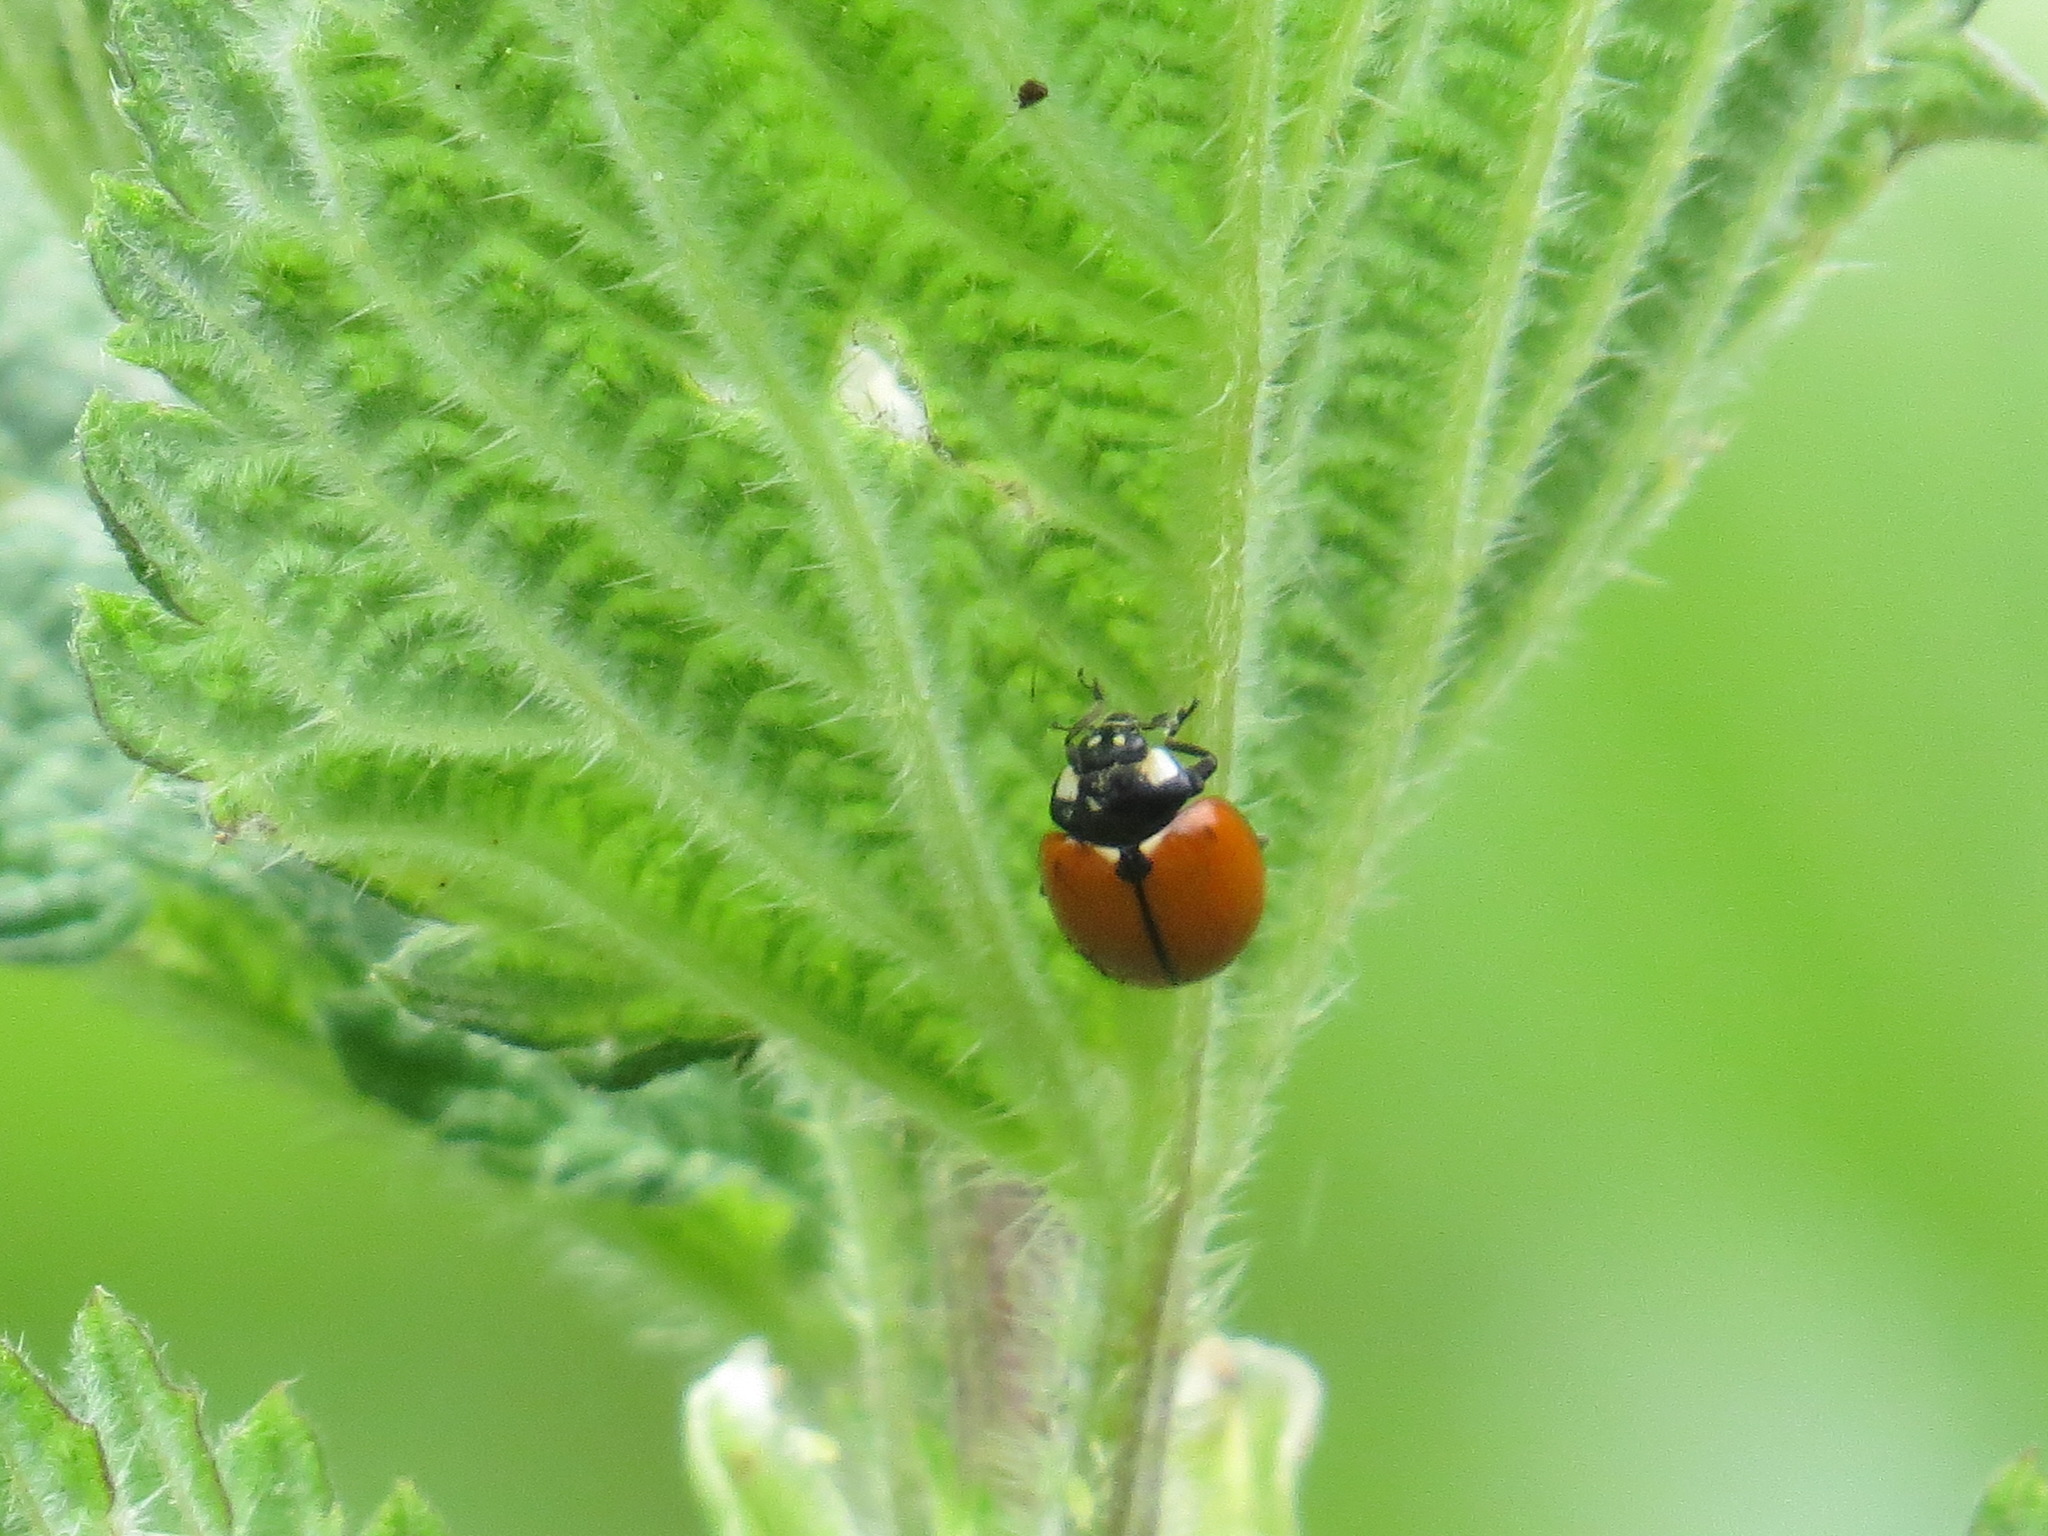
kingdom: Animalia
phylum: Arthropoda
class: Insecta
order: Coleoptera
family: Coccinellidae
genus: Coccinella
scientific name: Coccinella californica
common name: Lady beetle
